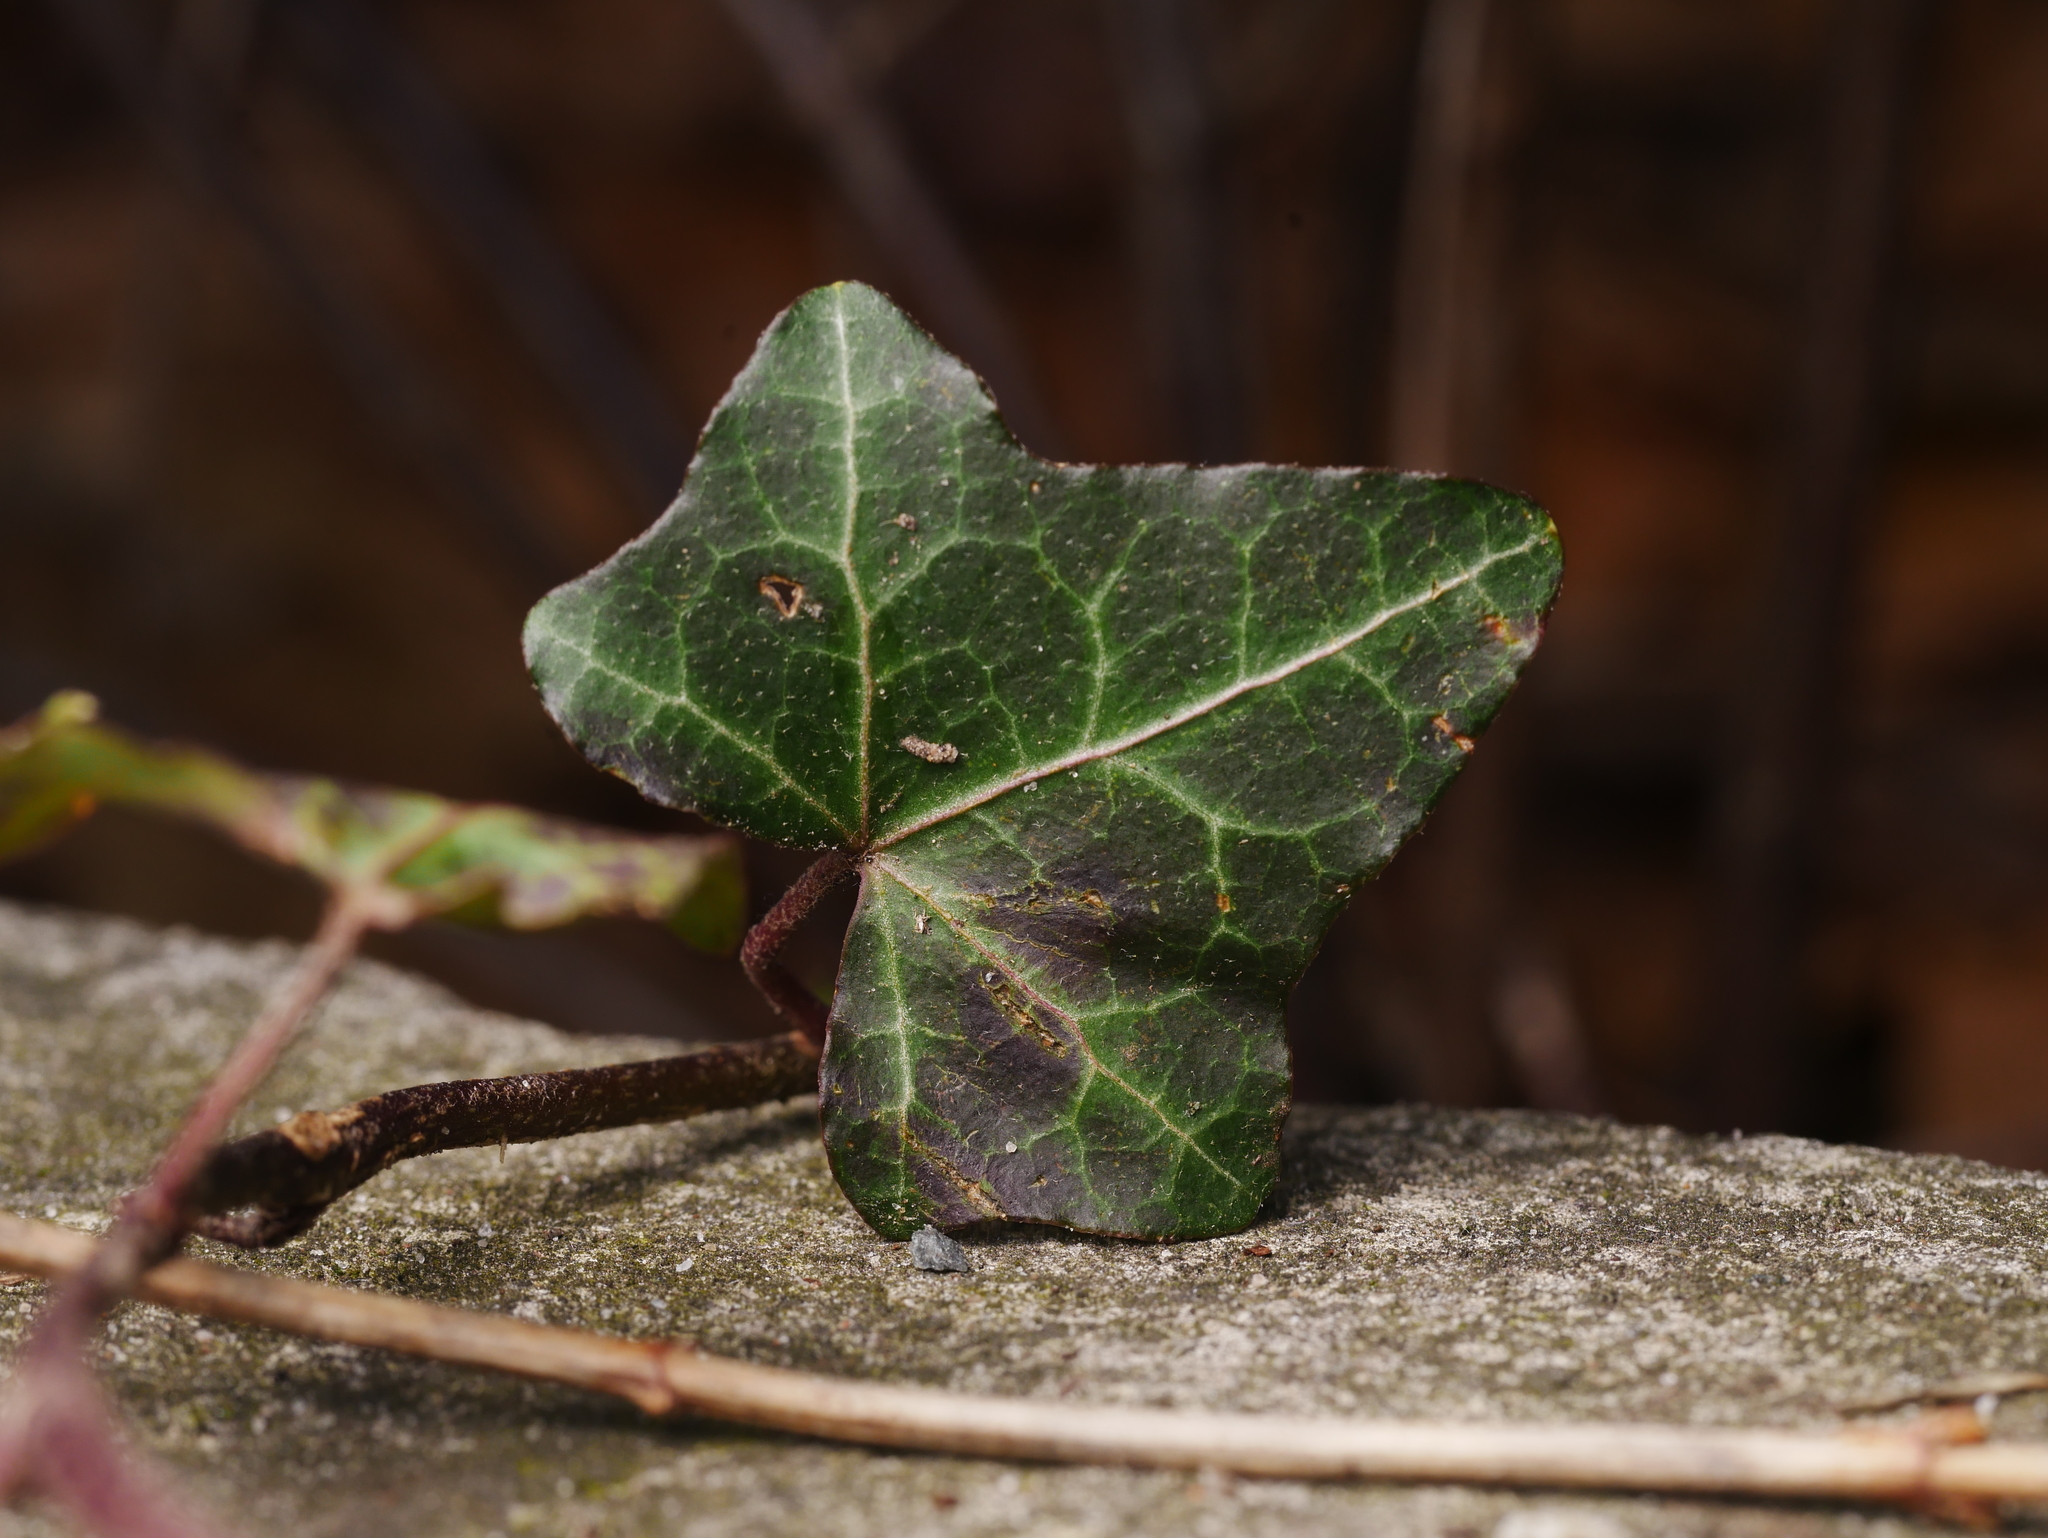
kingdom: Plantae
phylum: Tracheophyta
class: Magnoliopsida
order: Apiales
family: Araliaceae
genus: Hedera
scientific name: Hedera helix
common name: Ivy
